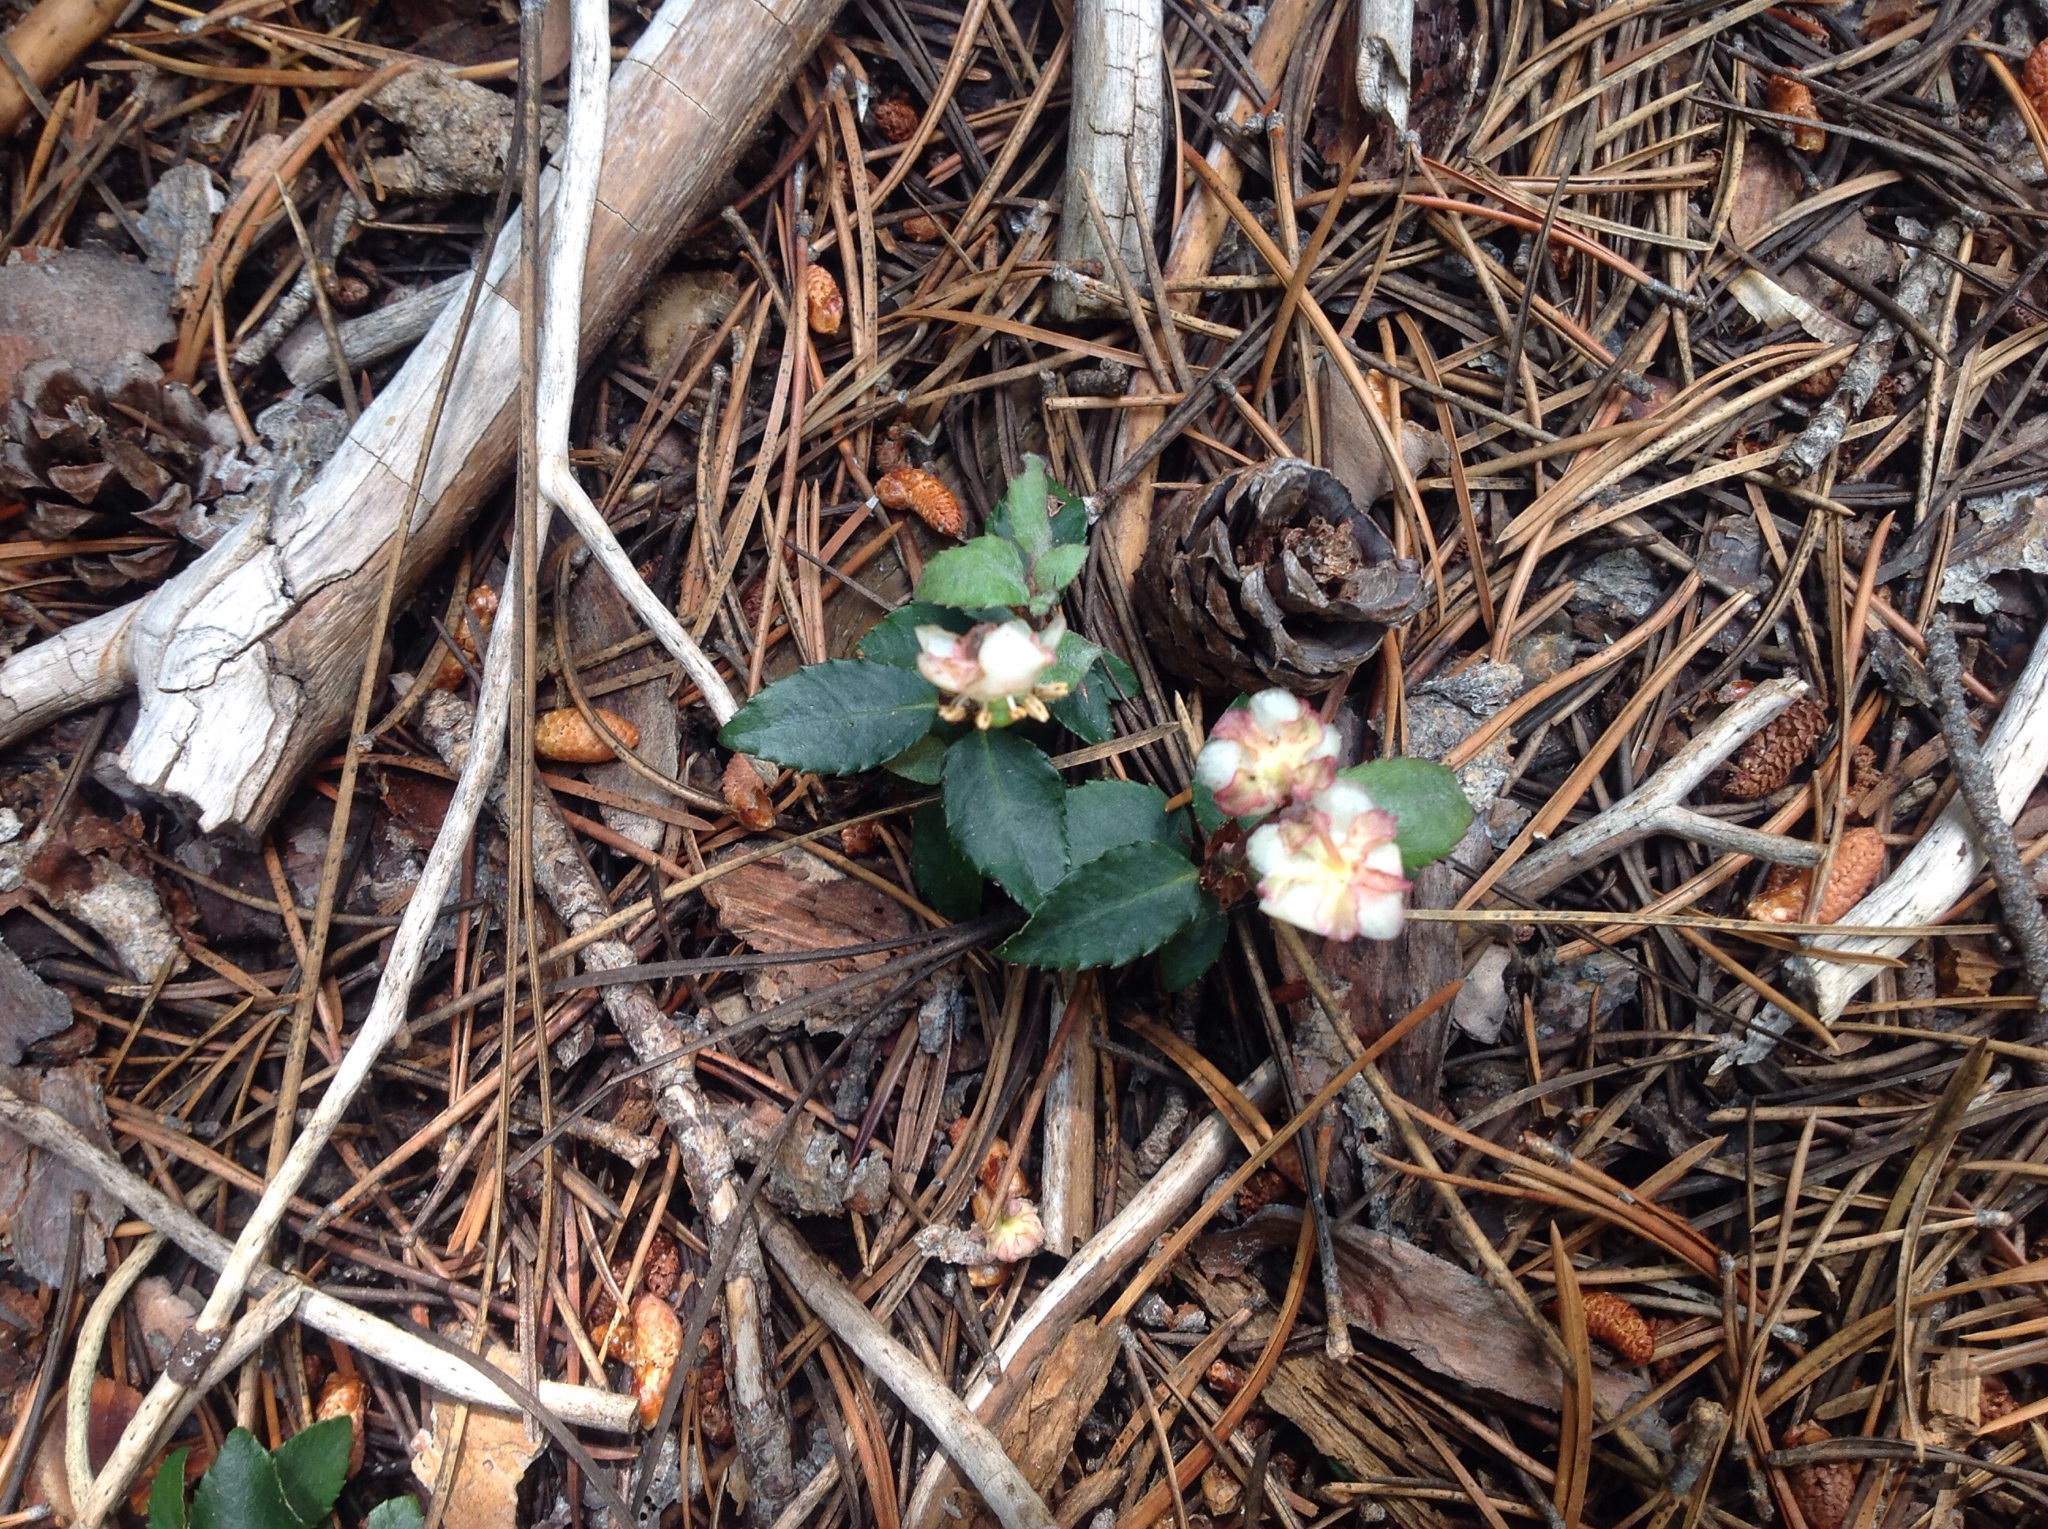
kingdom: Plantae
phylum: Tracheophyta
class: Magnoliopsida
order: Ericales
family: Ericaceae
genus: Chimaphila
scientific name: Chimaphila menziesii
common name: Menzies' pipsissewa
